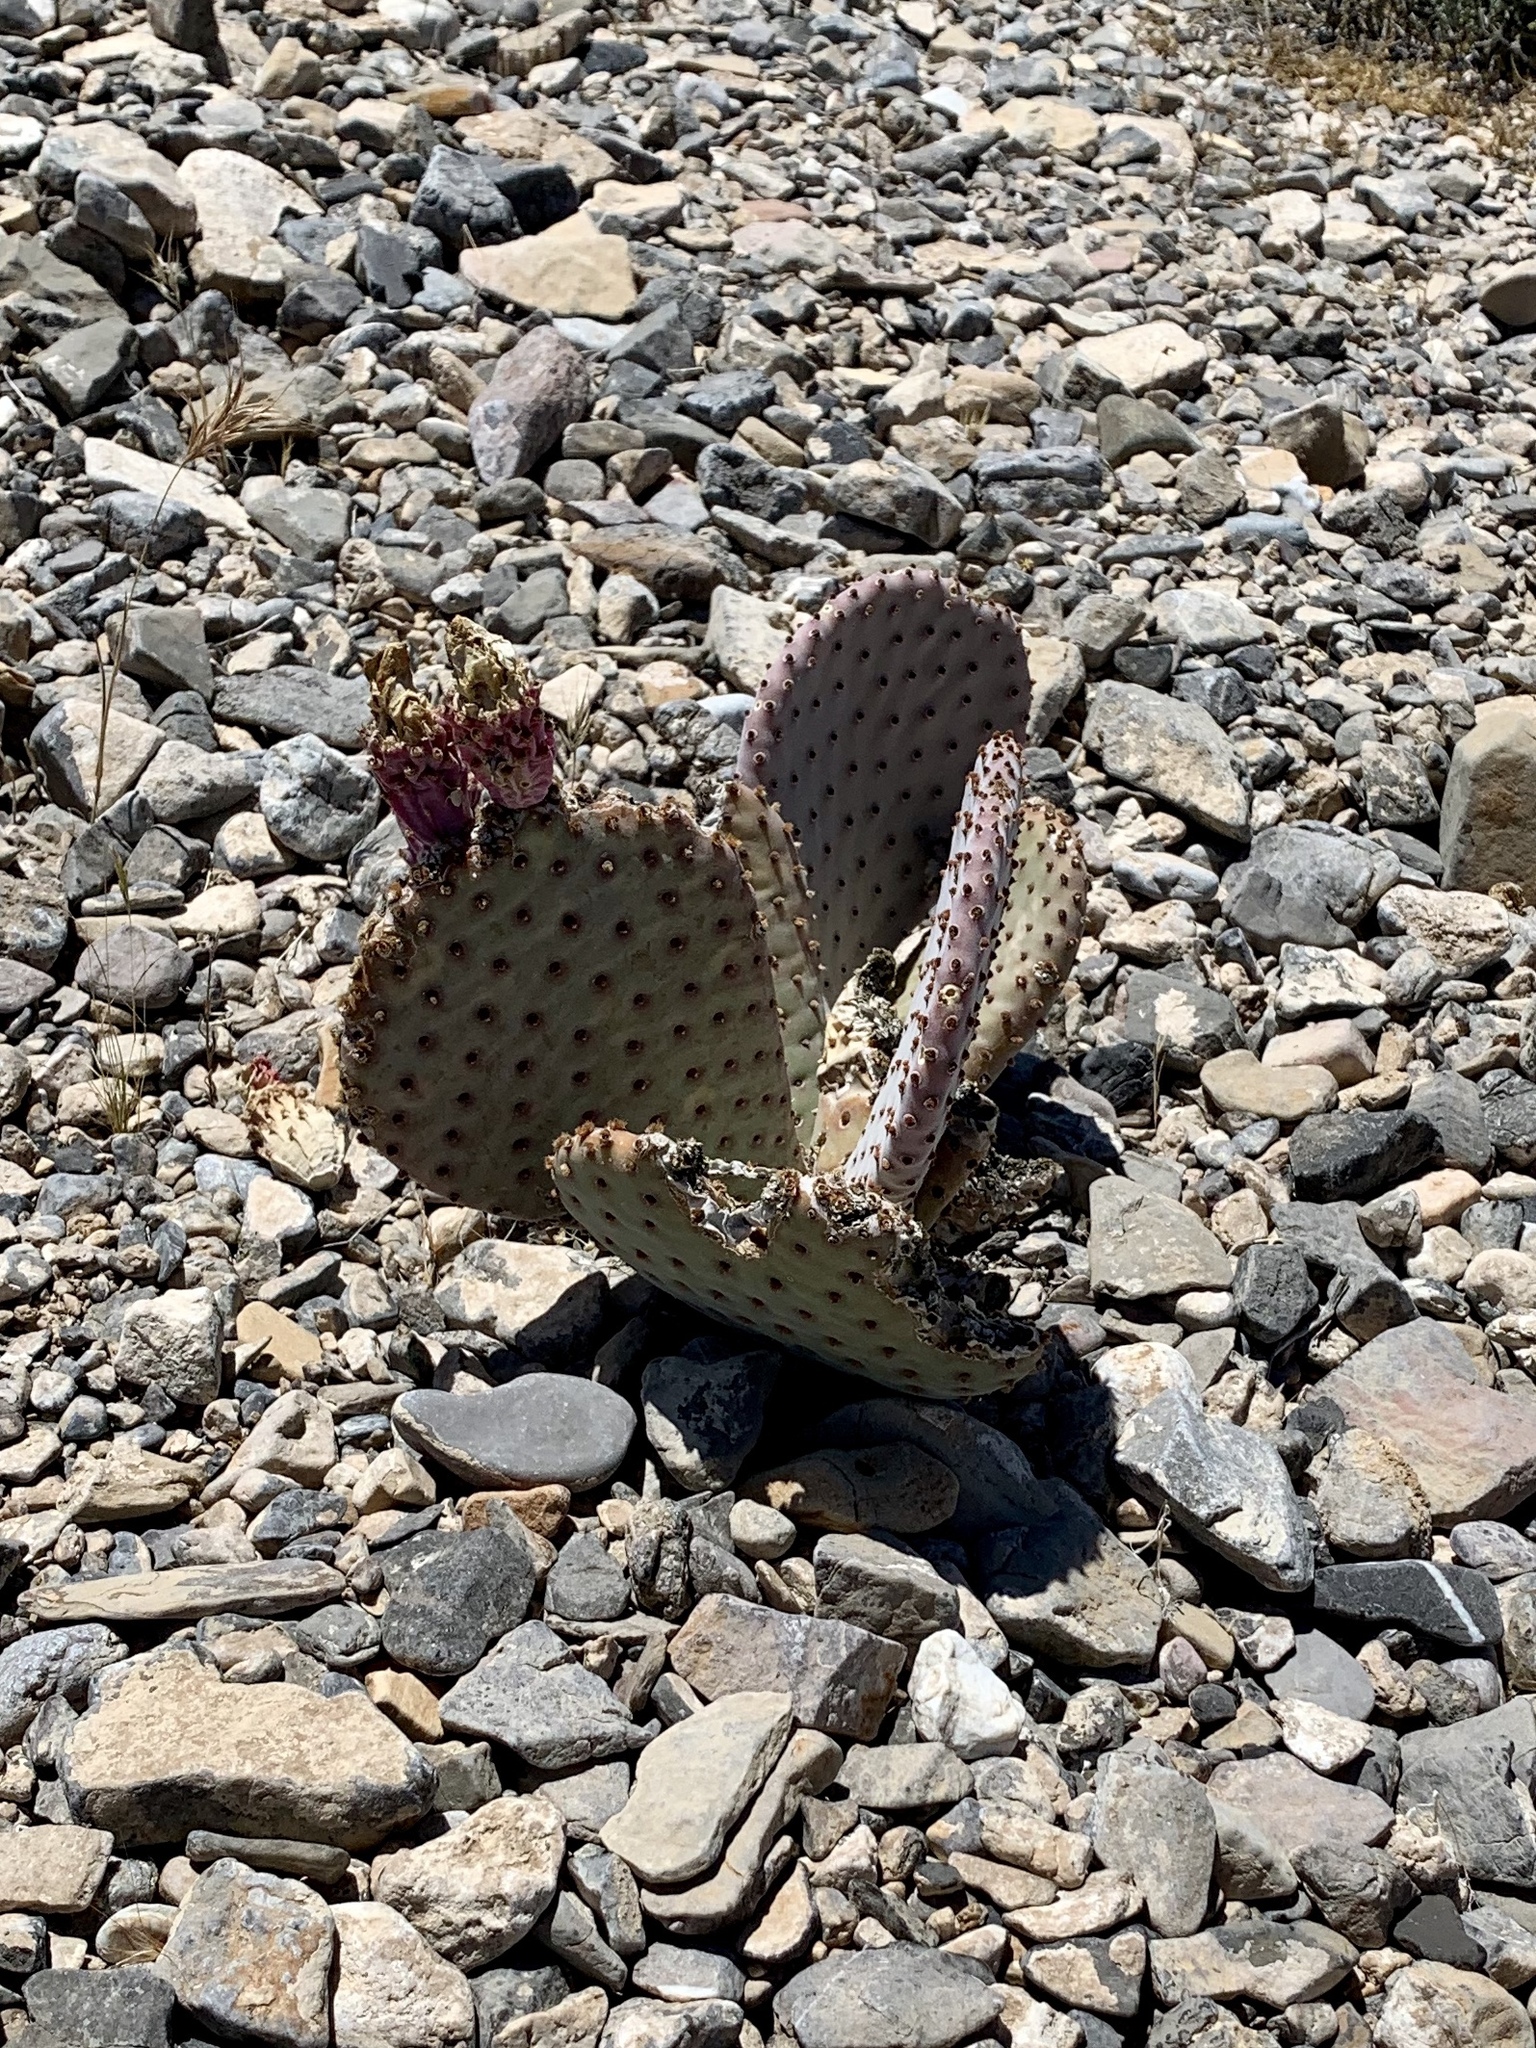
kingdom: Plantae
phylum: Tracheophyta
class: Magnoliopsida
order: Caryophyllales
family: Cactaceae
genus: Opuntia
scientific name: Opuntia basilaris
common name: Beavertail prickly-pear
